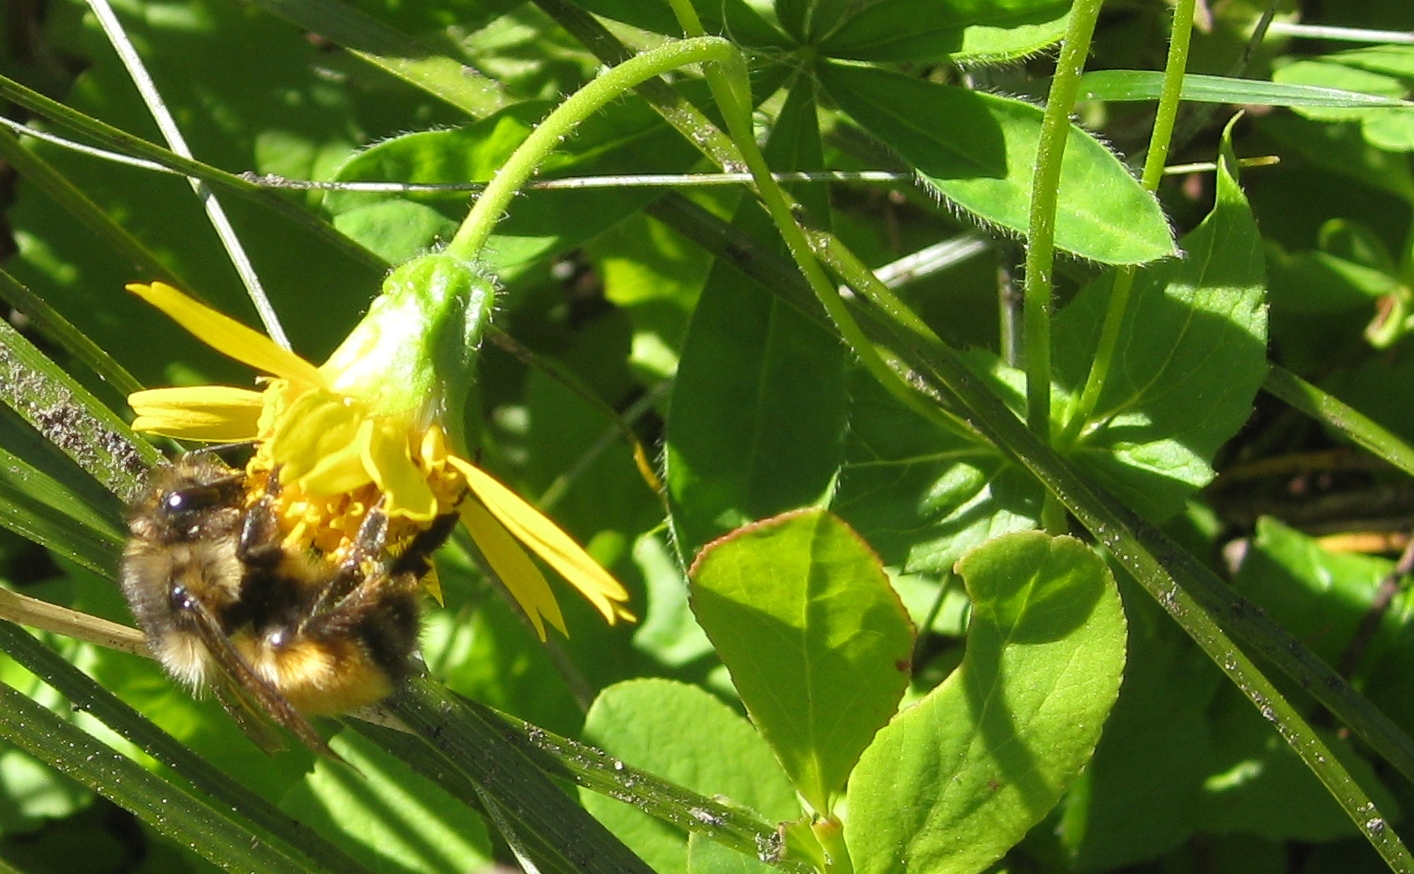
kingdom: Animalia
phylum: Arthropoda
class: Insecta
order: Hymenoptera
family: Apidae
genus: Bombus
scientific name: Bombus melanopygus
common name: Black tail bumble bee
